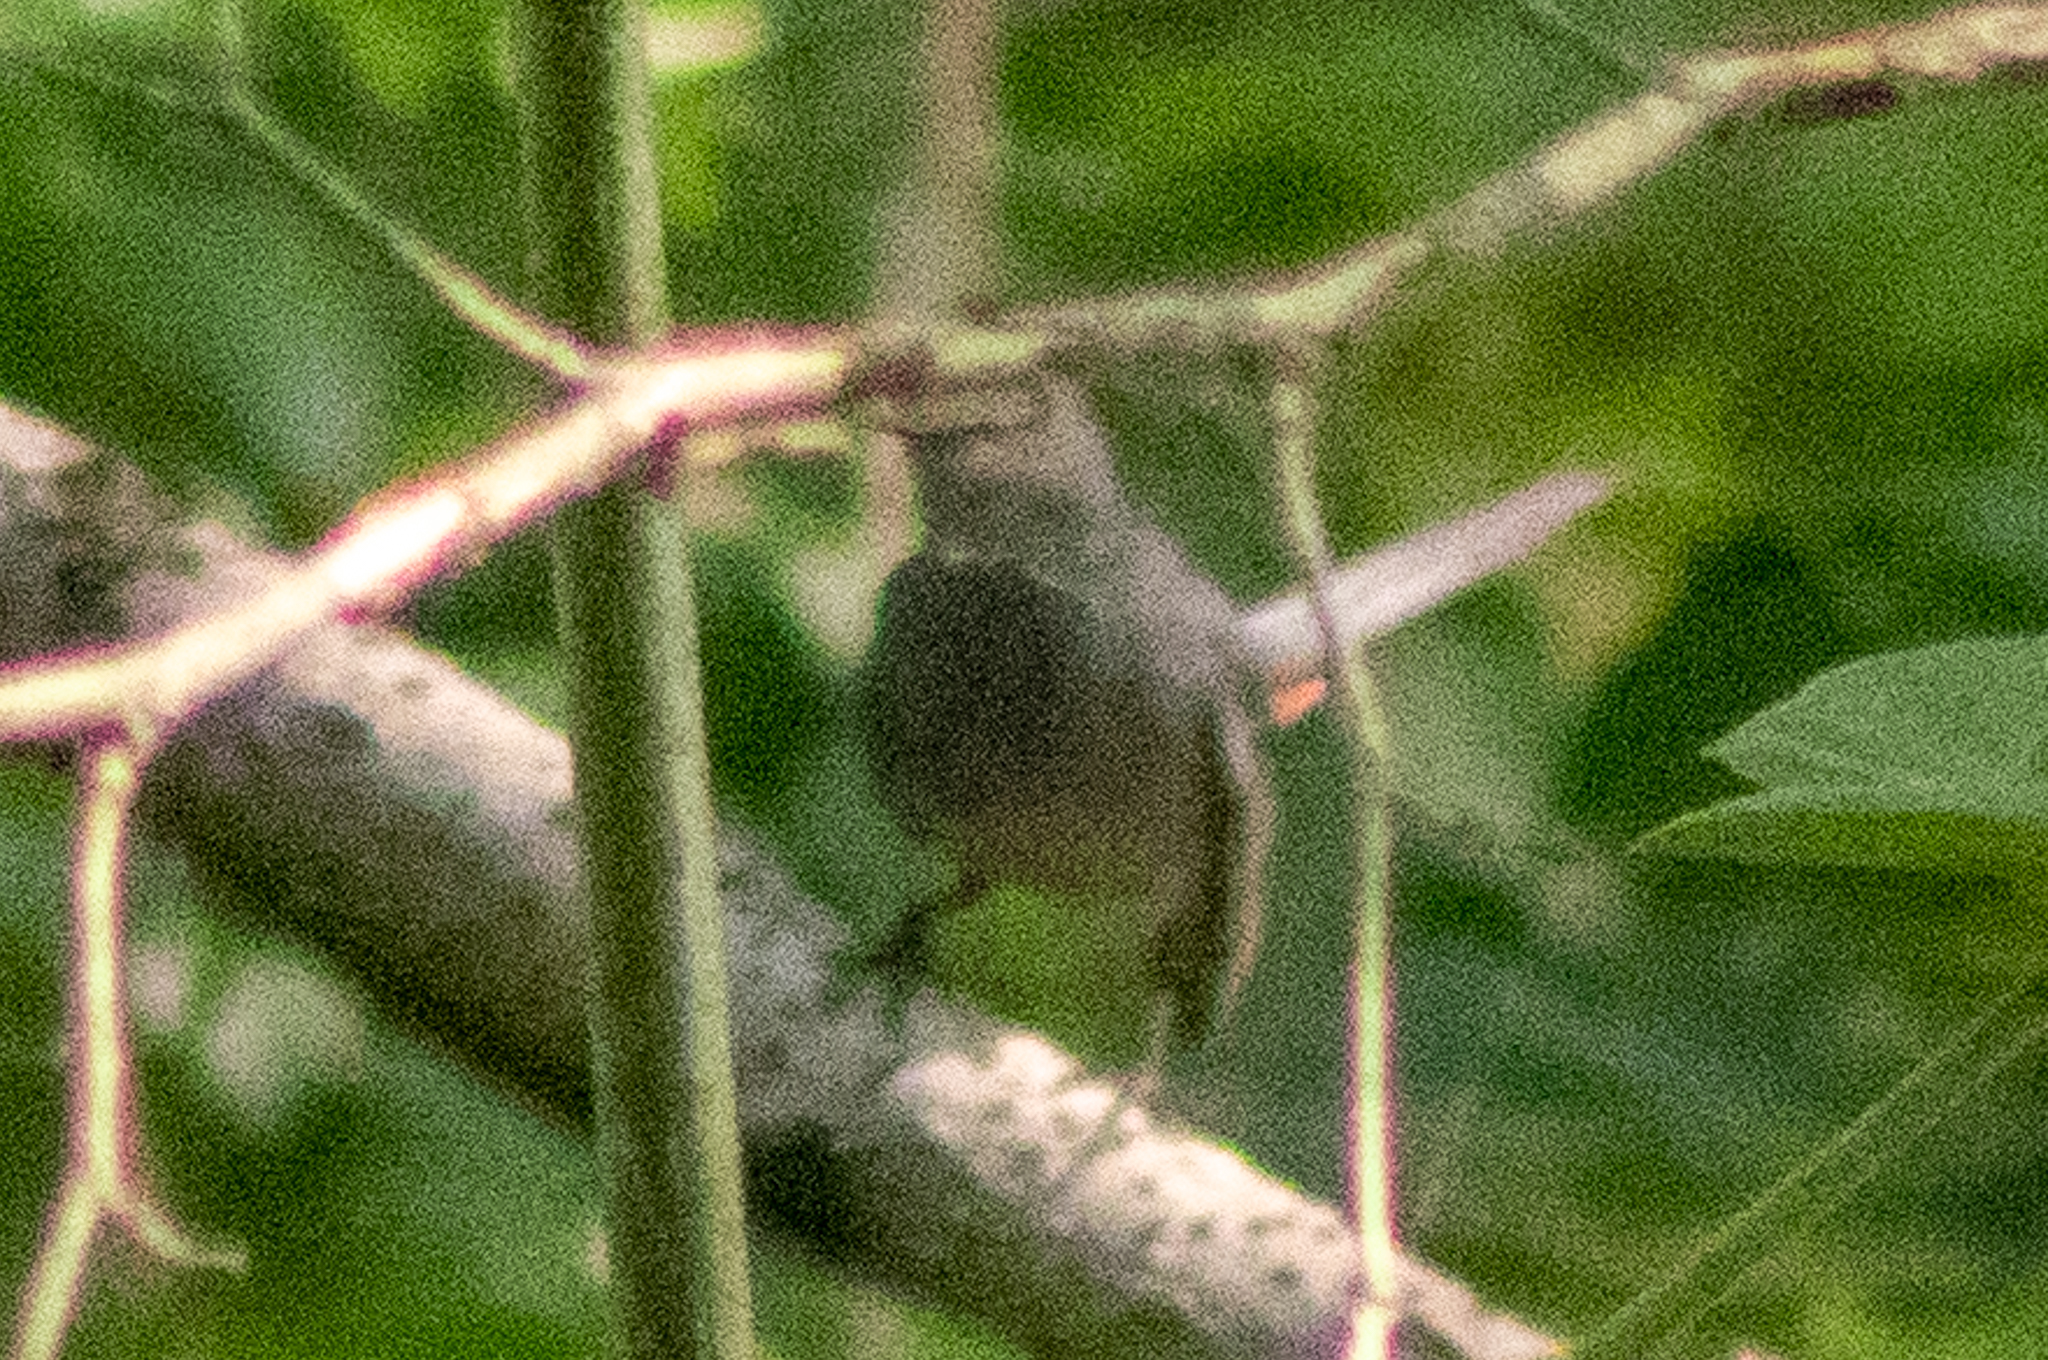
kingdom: Animalia
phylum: Chordata
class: Aves
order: Passeriformes
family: Mimidae
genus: Dumetella
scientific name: Dumetella carolinensis
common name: Gray catbird
